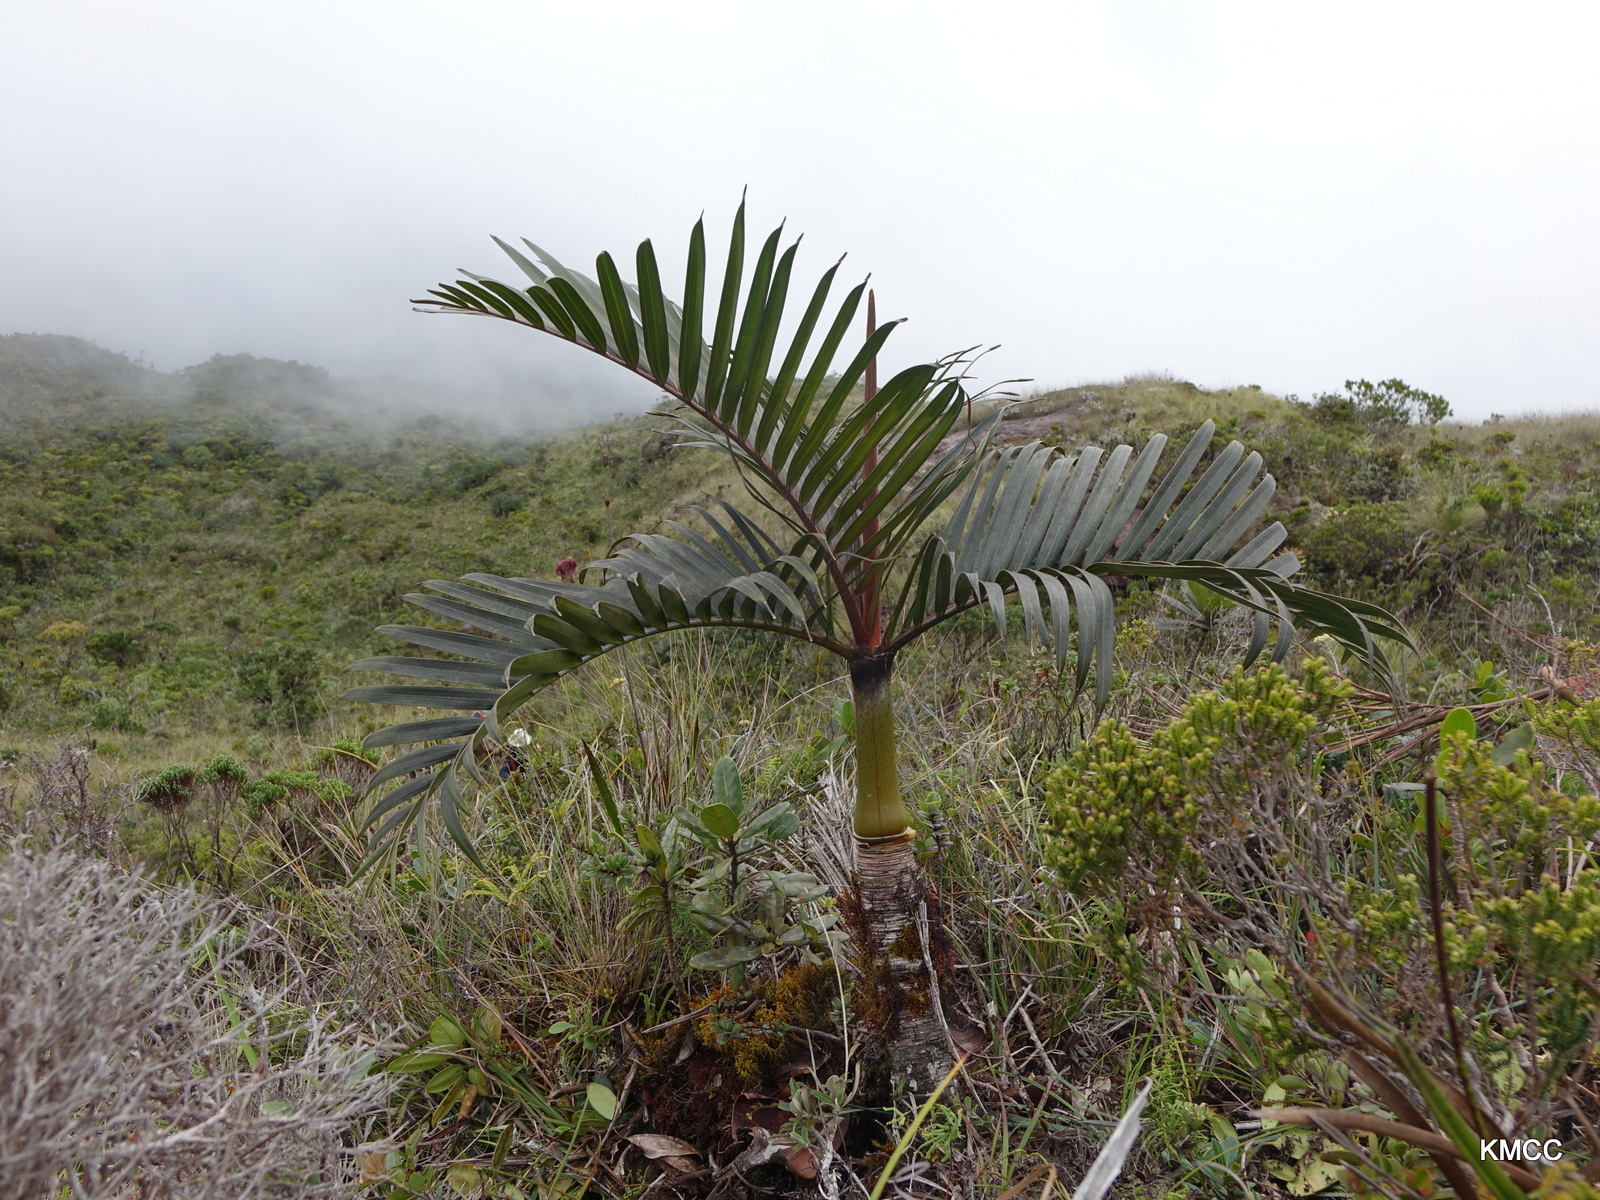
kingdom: Plantae
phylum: Tracheophyta
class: Liliopsida
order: Arecales
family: Arecaceae
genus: Dypsis
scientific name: Dypsis pumila
